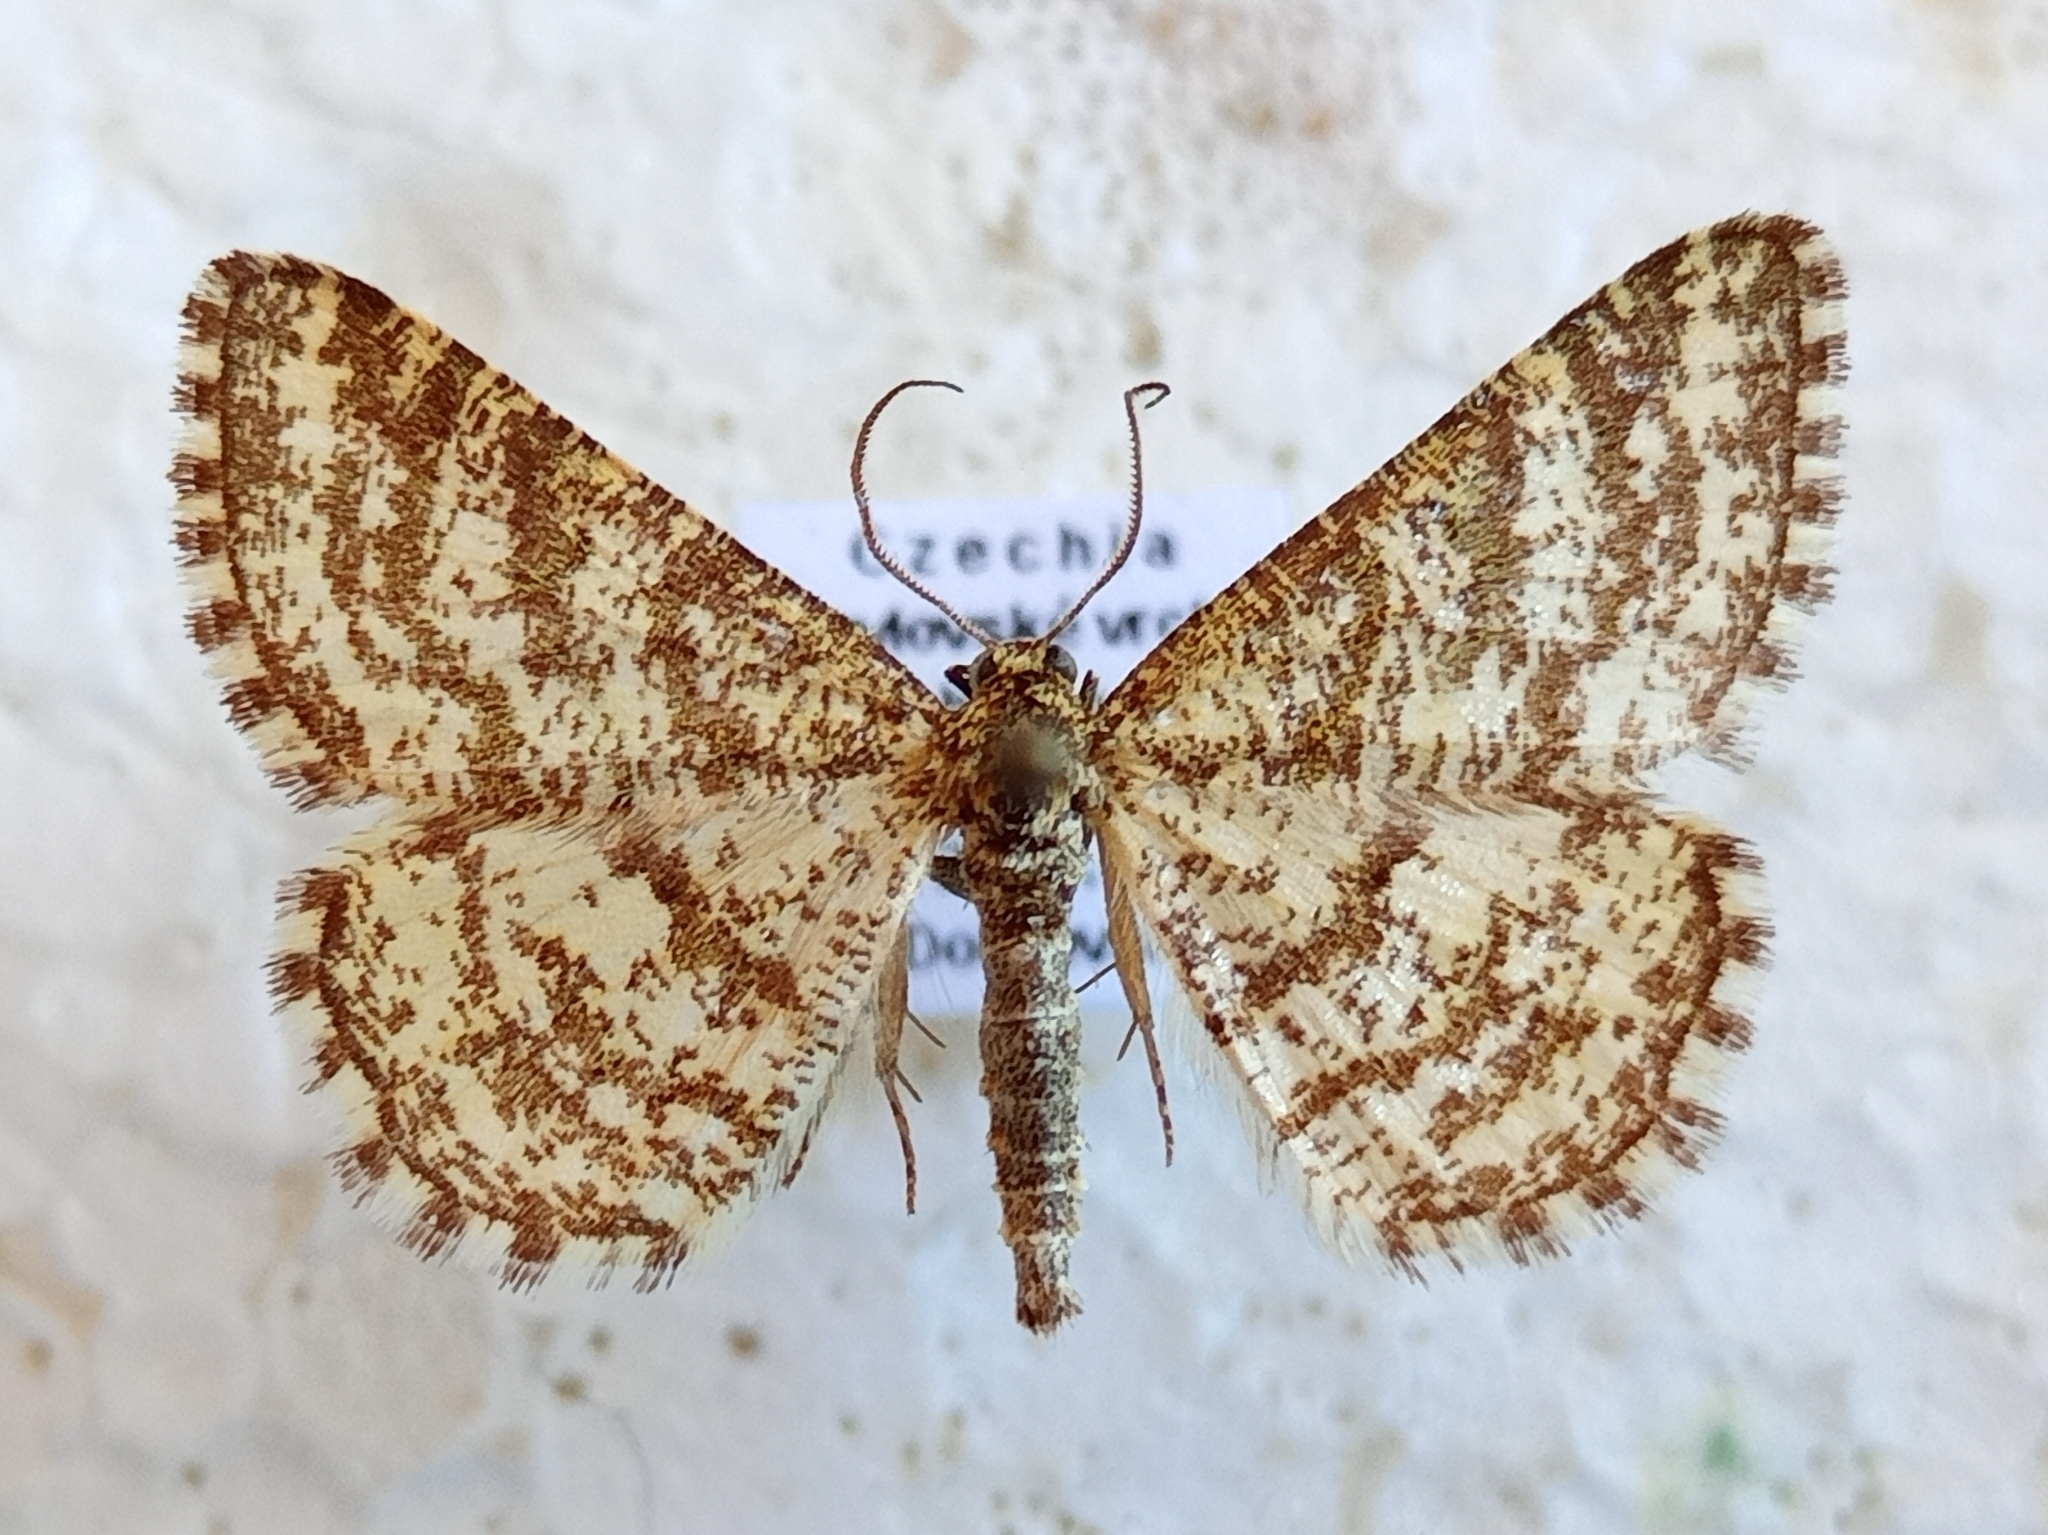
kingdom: Animalia
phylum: Arthropoda
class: Insecta
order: Lepidoptera
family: Geometridae
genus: Heliomata
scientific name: Heliomata glarearia
